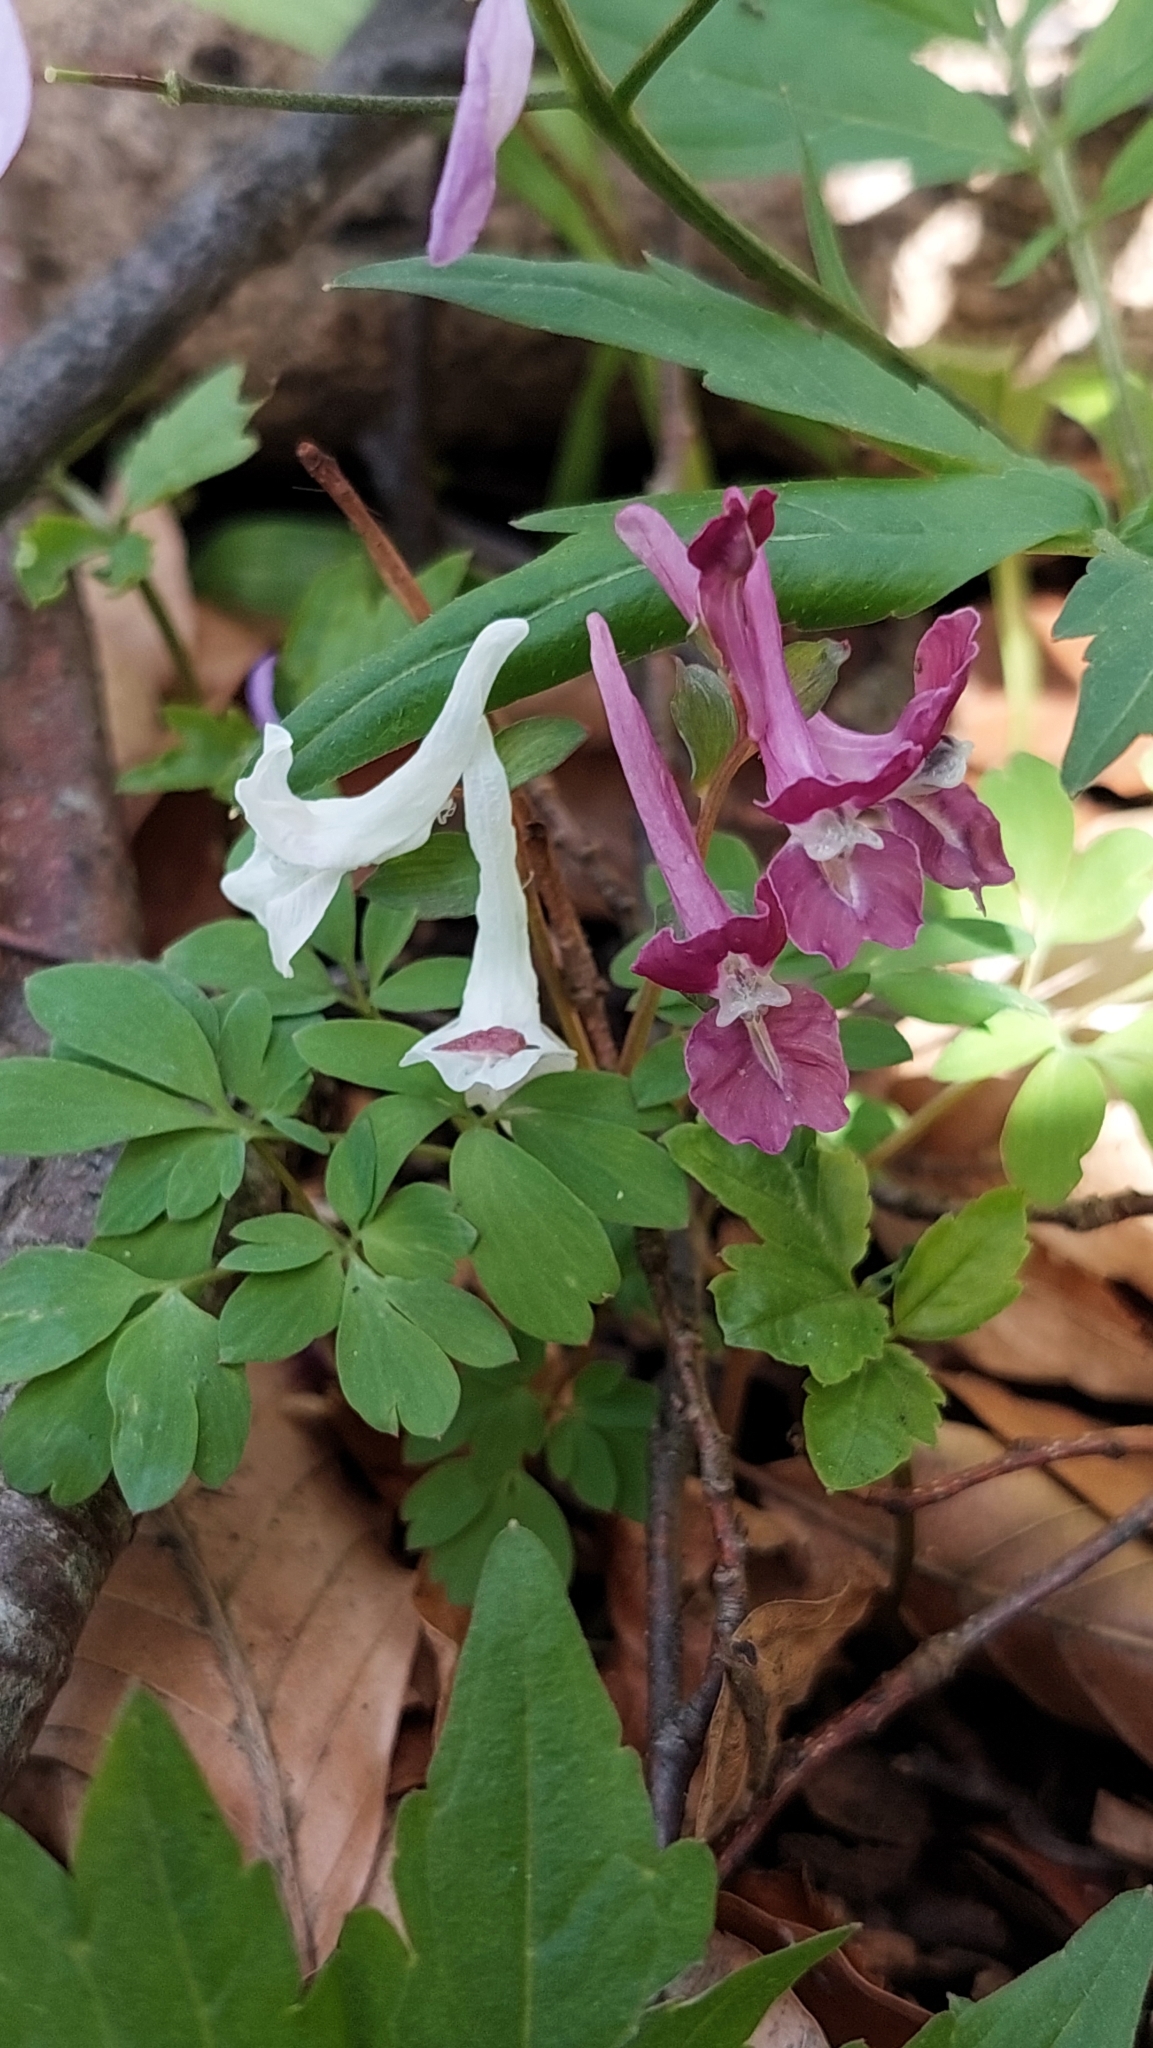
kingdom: Plantae
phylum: Tracheophyta
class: Magnoliopsida
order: Ranunculales
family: Papaveraceae
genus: Corydalis
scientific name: Corydalis caucasica
